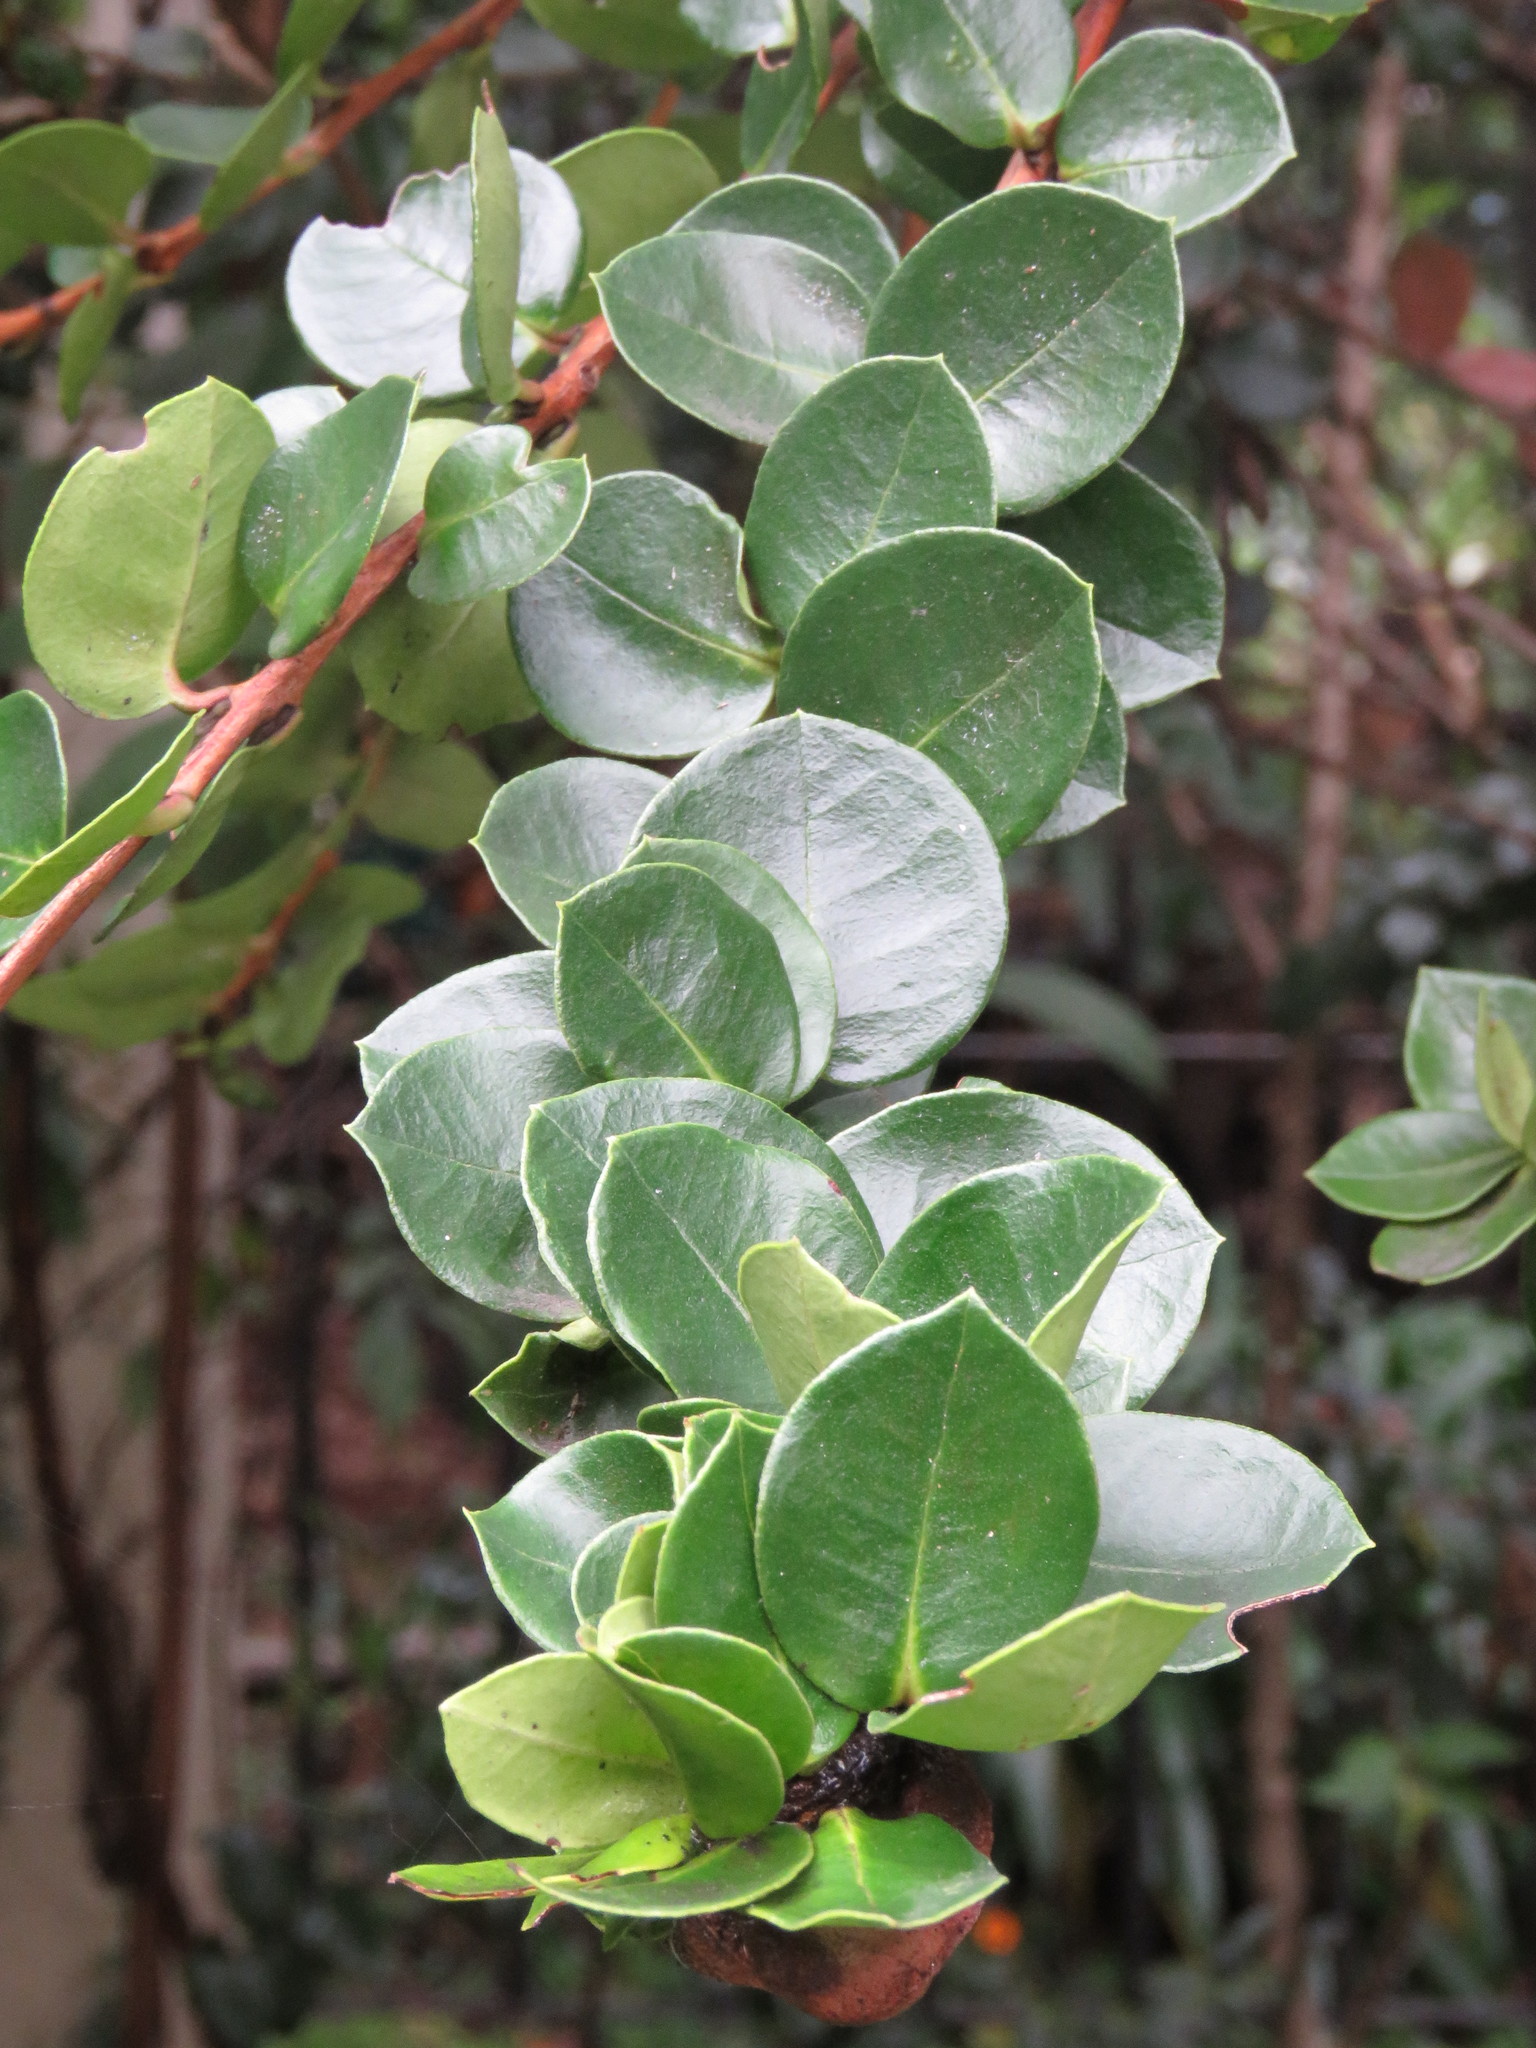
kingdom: Plantae
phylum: Tracheophyta
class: Magnoliopsida
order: Myrtales
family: Myrtaceae
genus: Myrcianthes
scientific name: Myrcianthes leucoxyla
